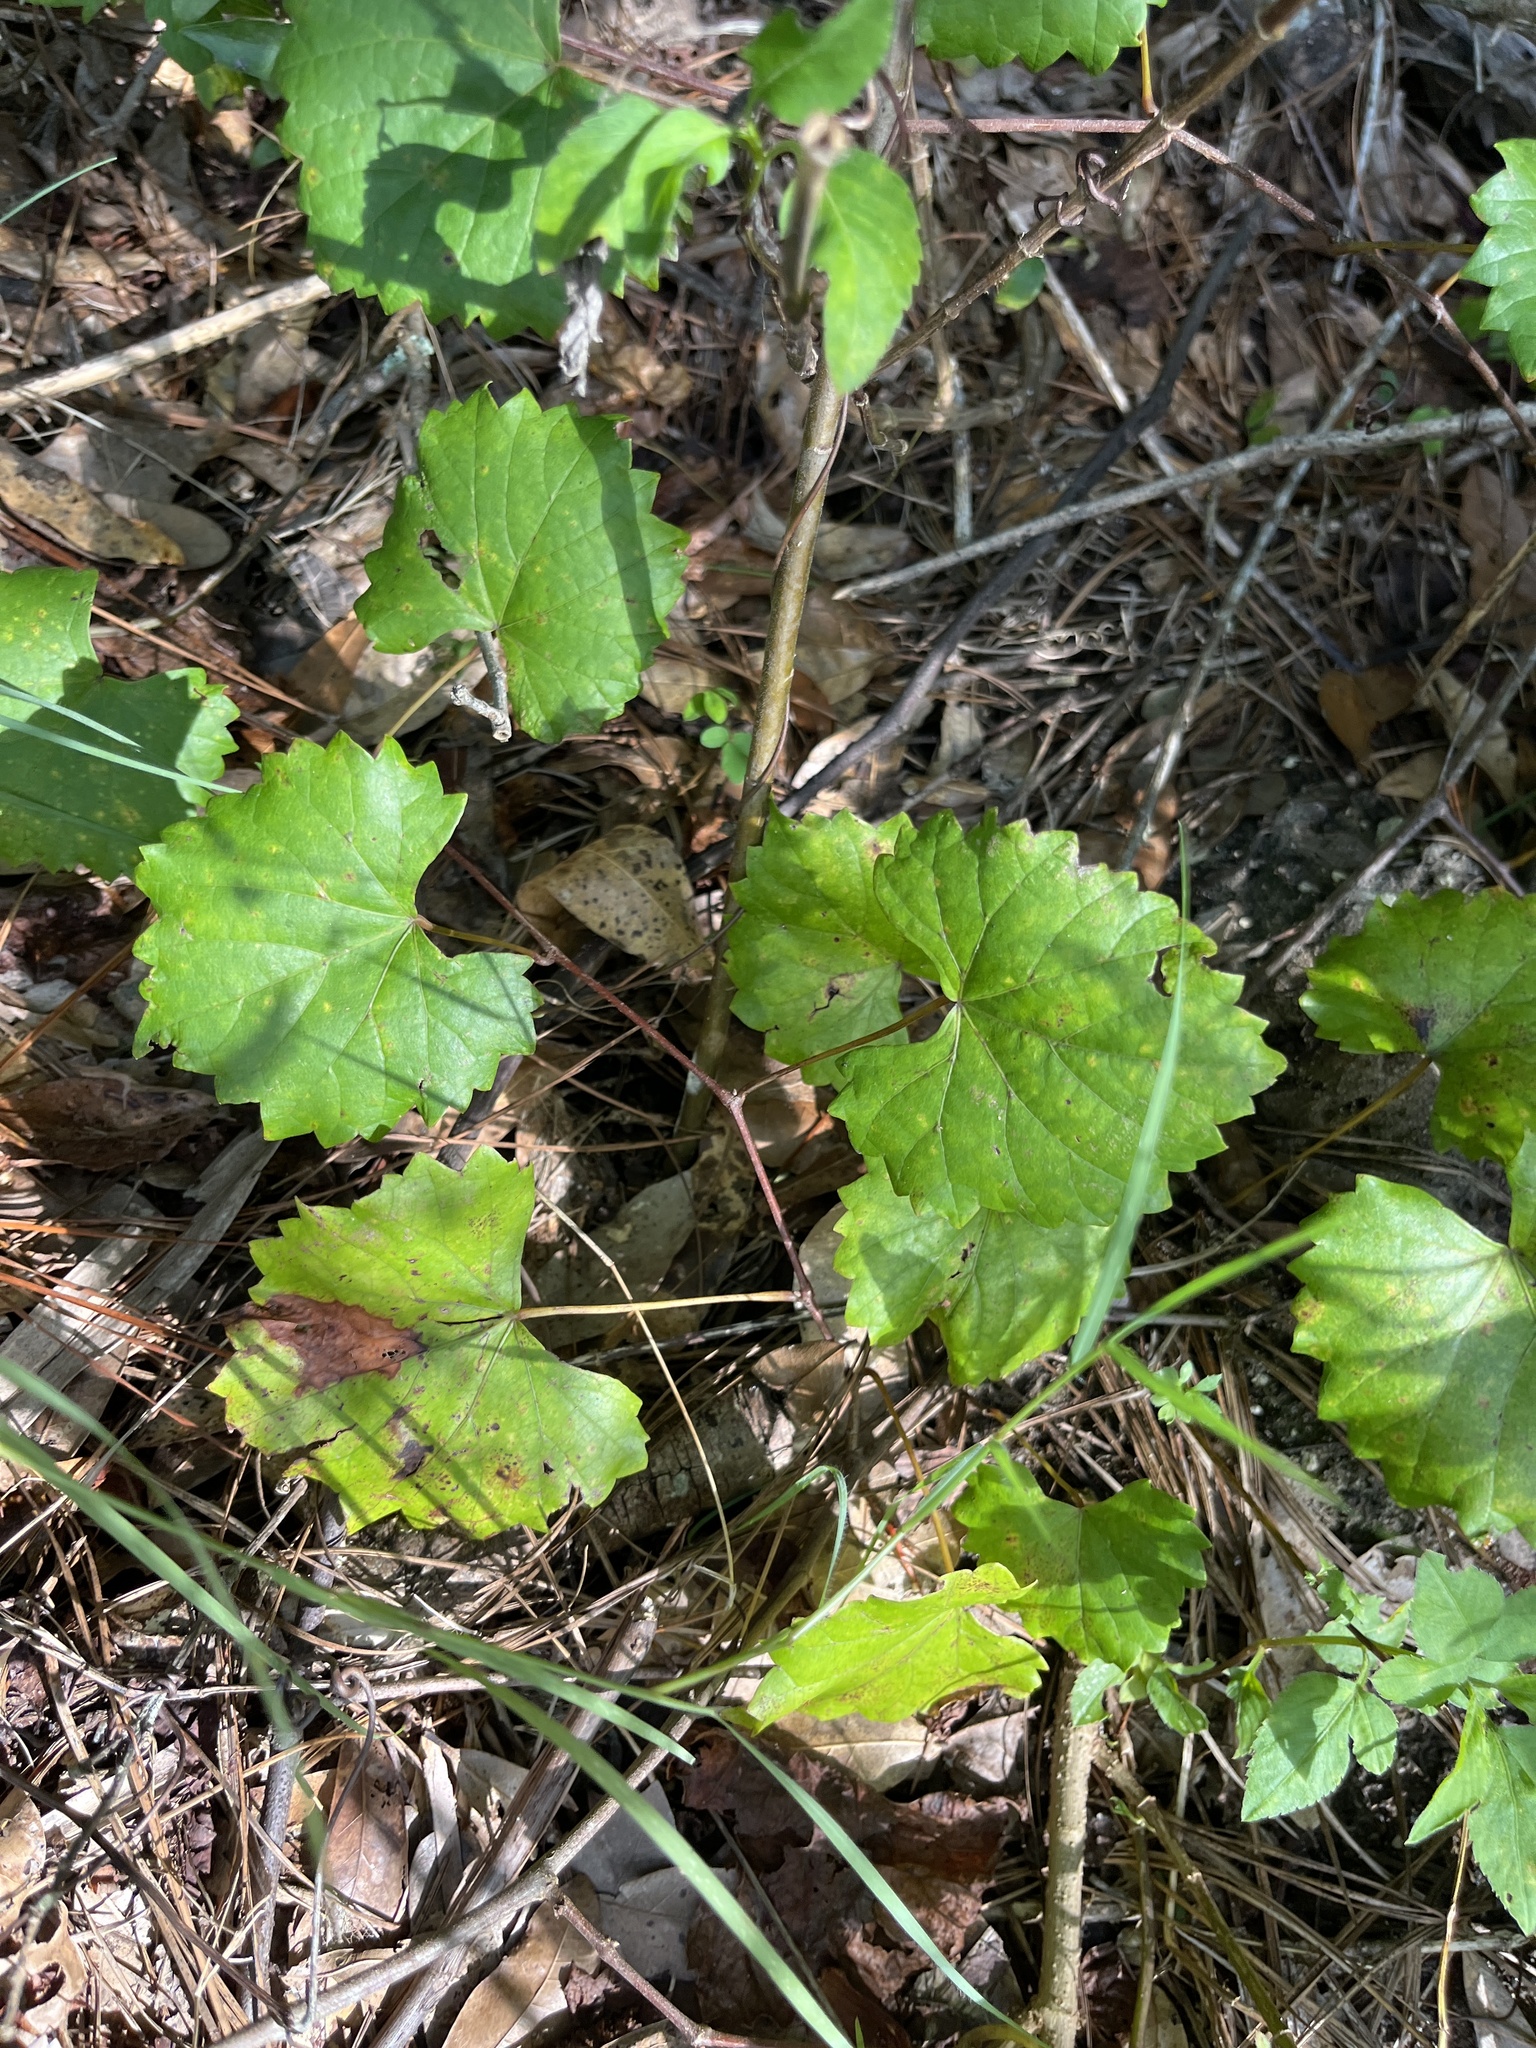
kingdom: Plantae
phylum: Tracheophyta
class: Magnoliopsida
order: Vitales
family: Vitaceae
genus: Vitis
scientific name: Vitis rotundifolia
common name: Muscadine grape
